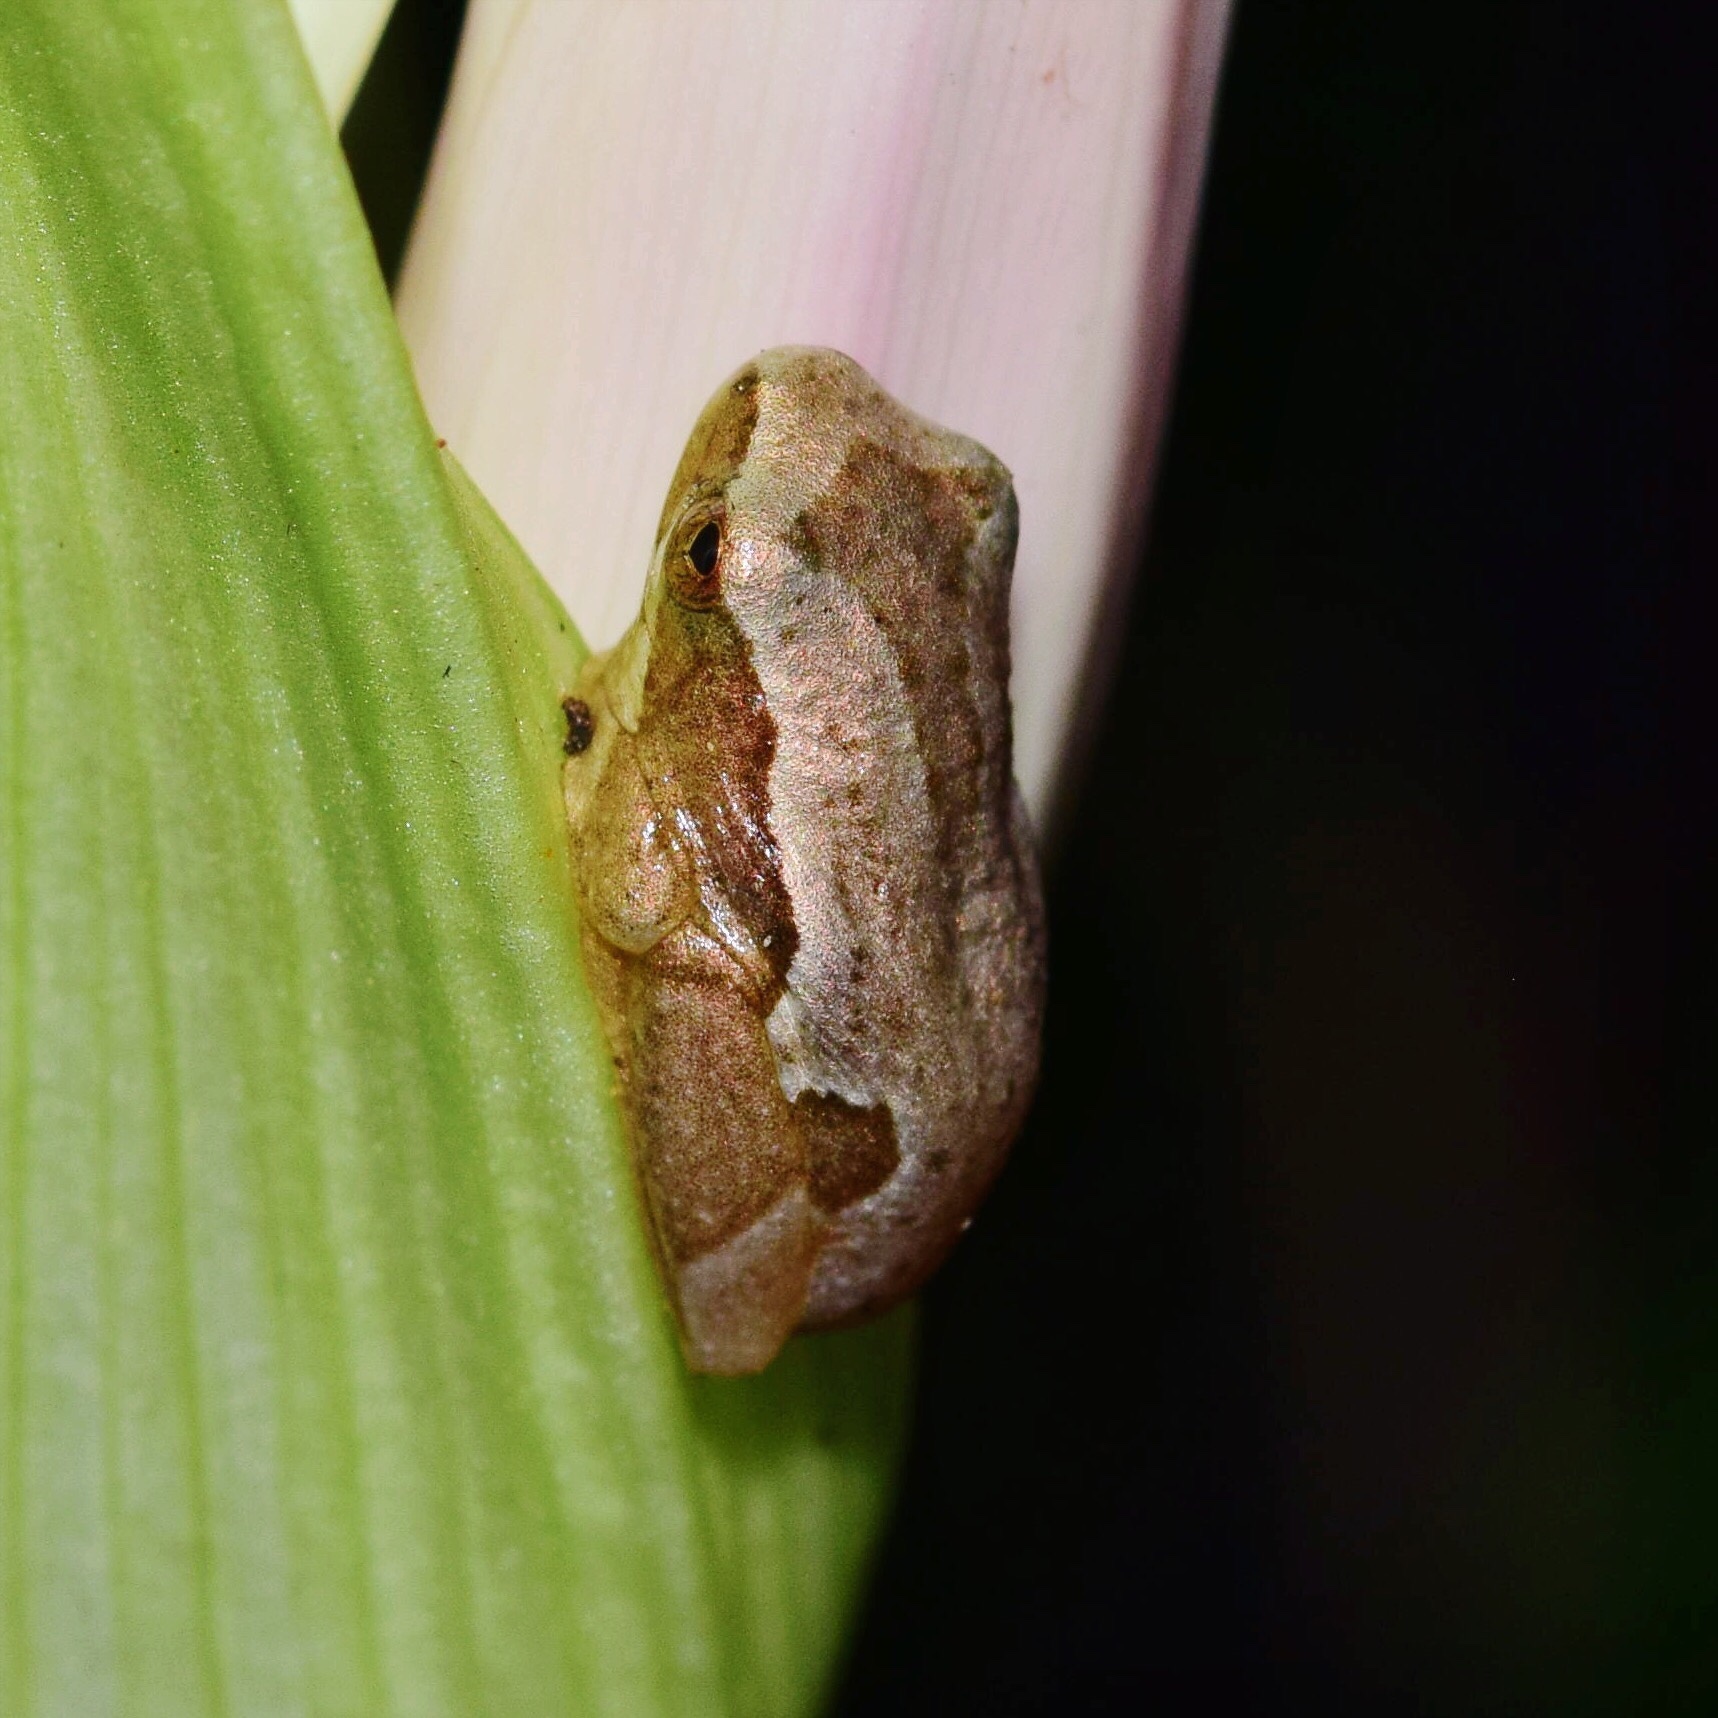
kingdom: Animalia
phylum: Chordata
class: Amphibia
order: Anura
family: Hyperoliidae
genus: Hyperolius
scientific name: Hyperolius marmoratus
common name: Painted reed frog
